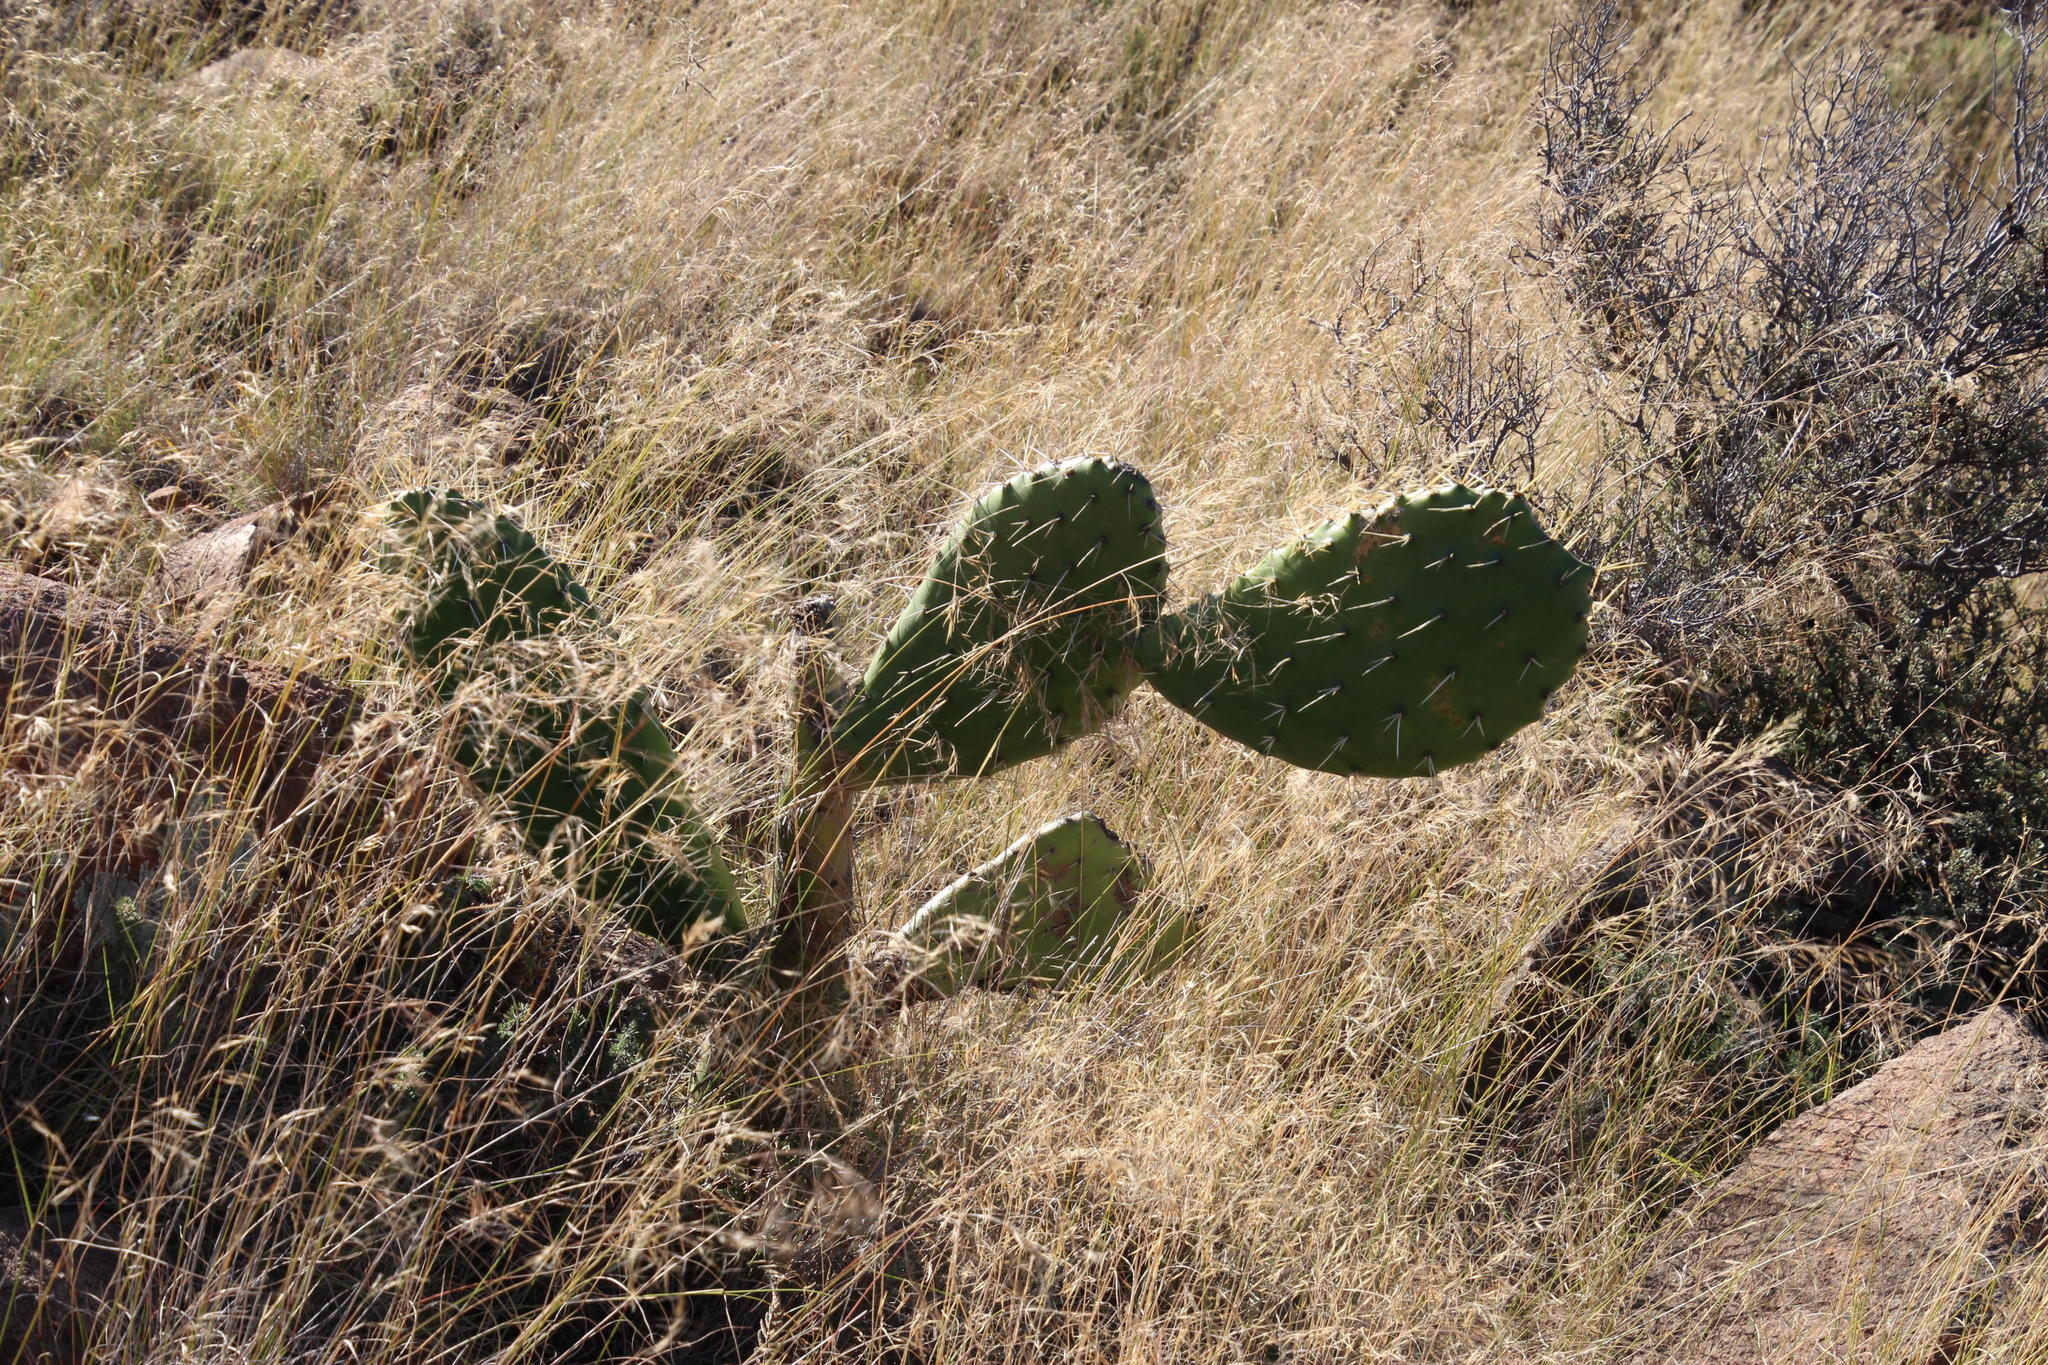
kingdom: Plantae
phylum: Tracheophyta
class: Magnoliopsida
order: Caryophyllales
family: Cactaceae
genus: Opuntia
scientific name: Opuntia ficus-indica
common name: Barbary fig
